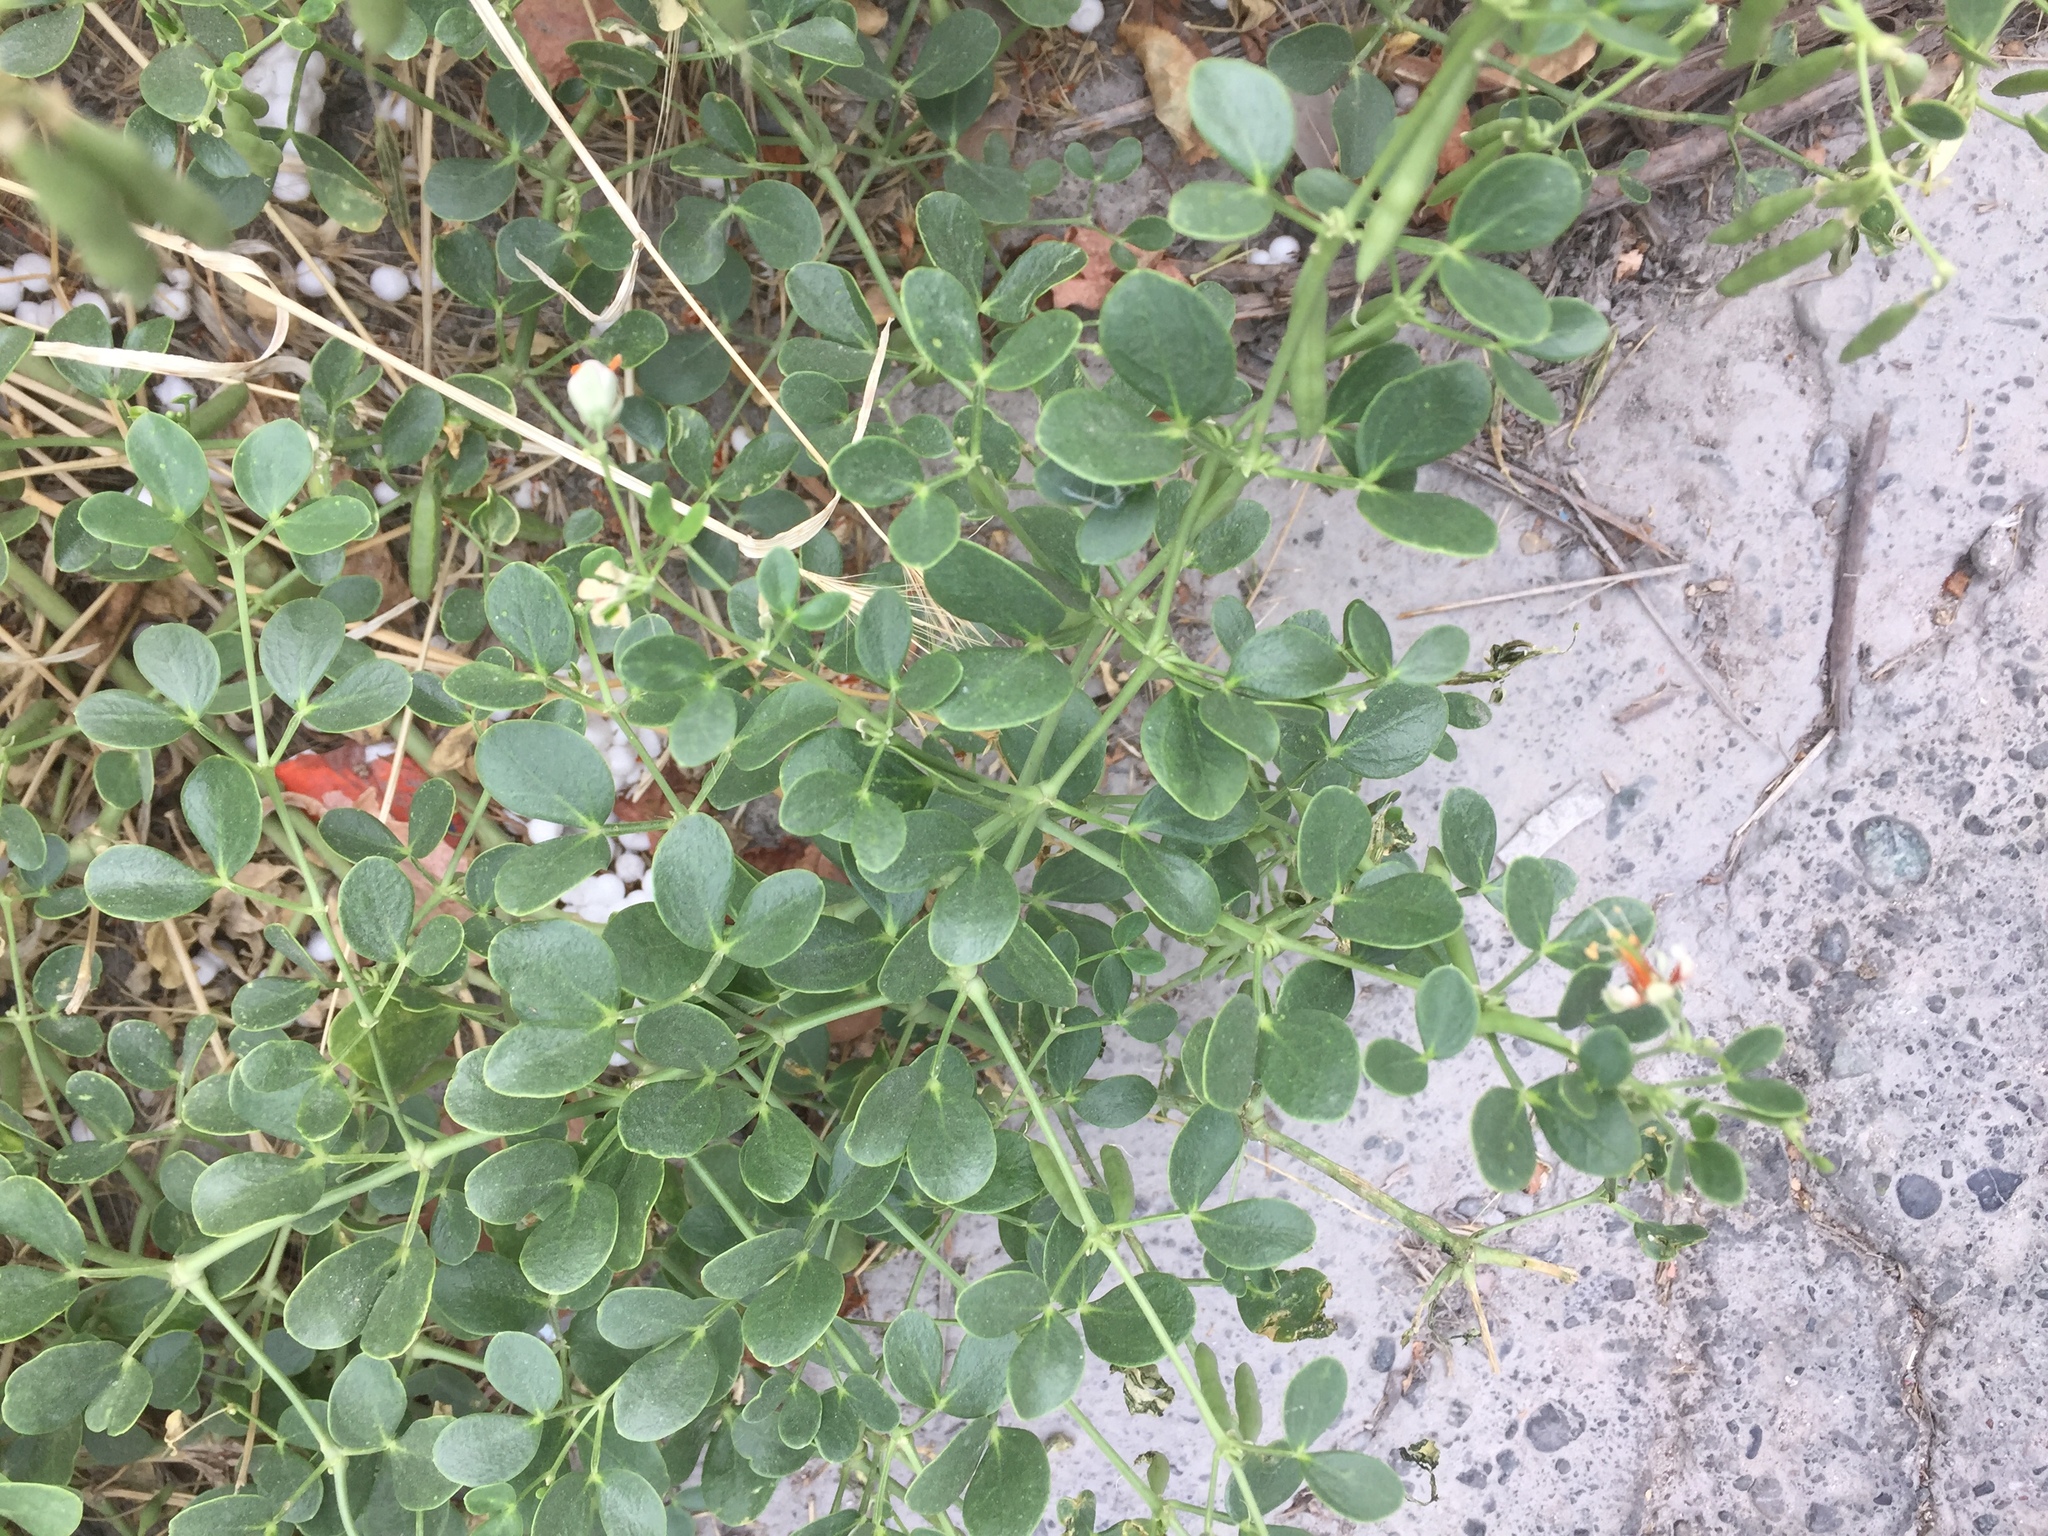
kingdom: Plantae
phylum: Tracheophyta
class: Magnoliopsida
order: Zygophyllales
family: Zygophyllaceae
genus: Zygophyllum
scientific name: Zygophyllum fabago
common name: Syrian beancaper
